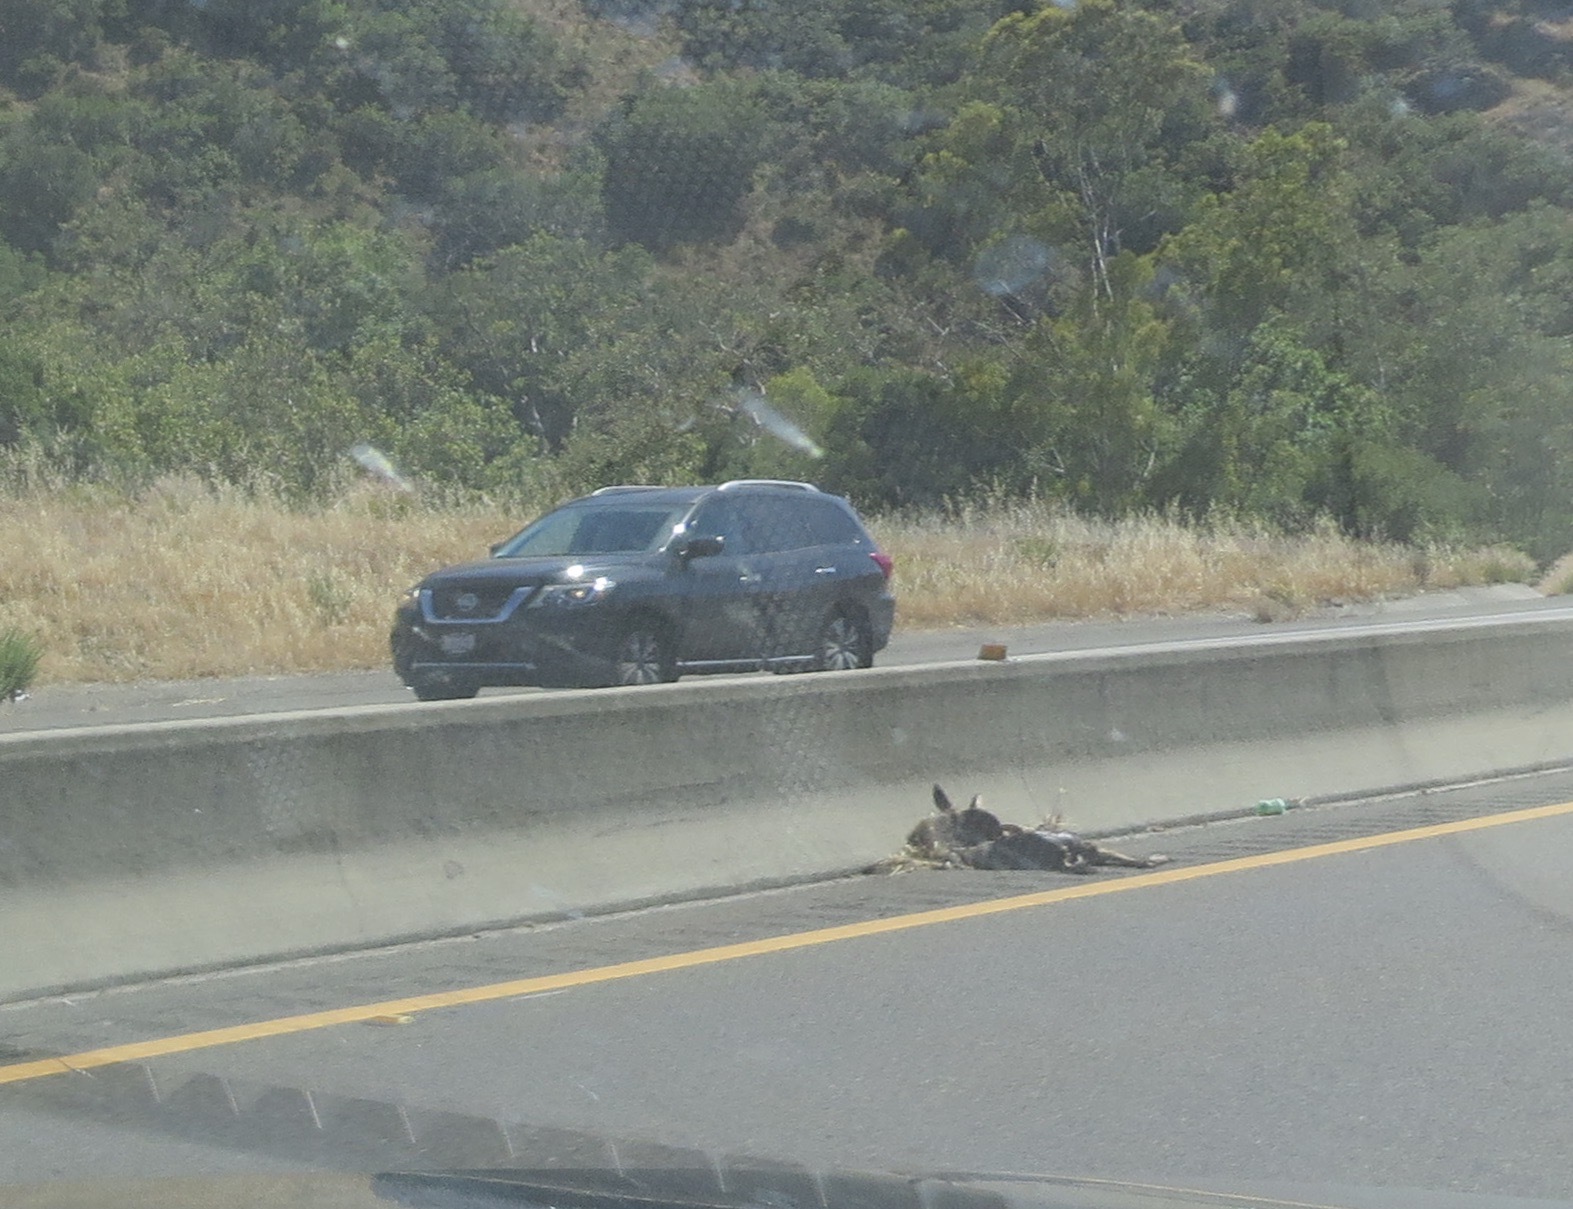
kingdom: Animalia
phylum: Chordata
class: Mammalia
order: Artiodactyla
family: Cervidae
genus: Odocoileus
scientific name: Odocoileus hemionus
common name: Mule deer
